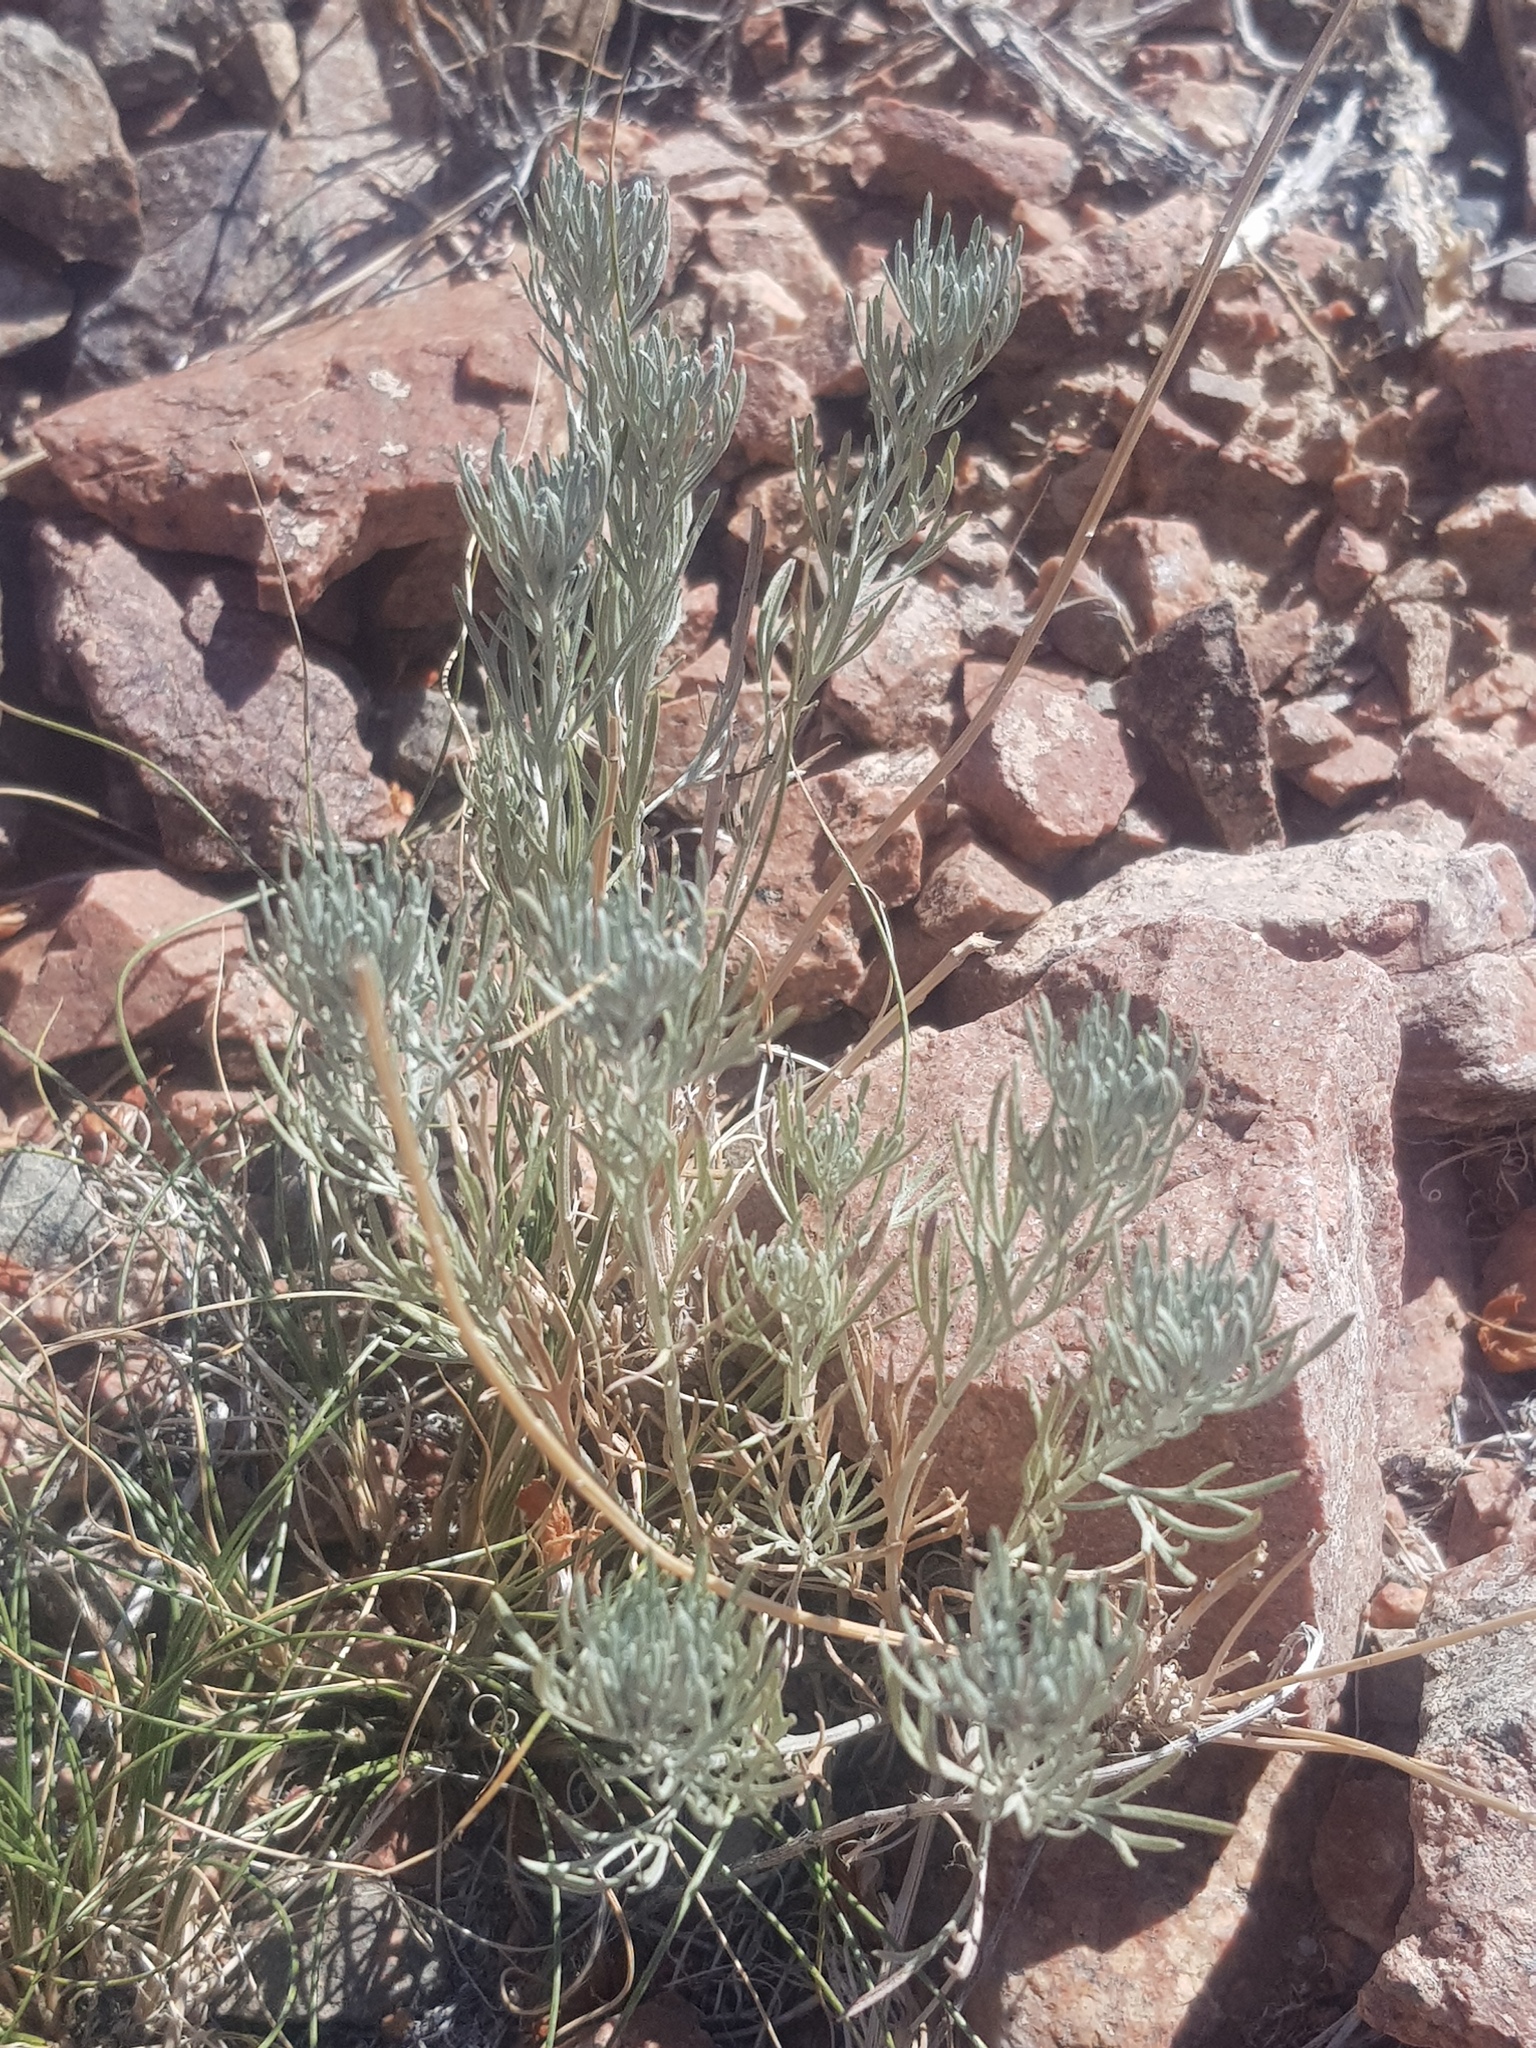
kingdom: Plantae
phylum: Tracheophyta
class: Magnoliopsida
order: Caryophyllales
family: Amaranthaceae
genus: Krascheninnikovia
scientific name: Krascheninnikovia ceratoides
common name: Pamirian winterfat
